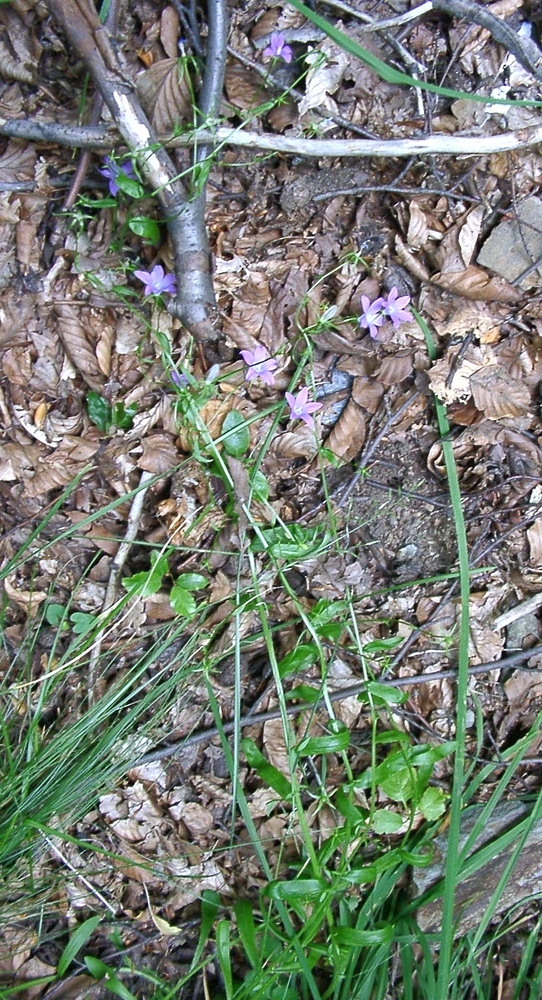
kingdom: Plantae
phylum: Tracheophyta
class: Magnoliopsida
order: Asterales
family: Campanulaceae
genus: Campanula
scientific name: Campanula patula
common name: Spreading bellflower
